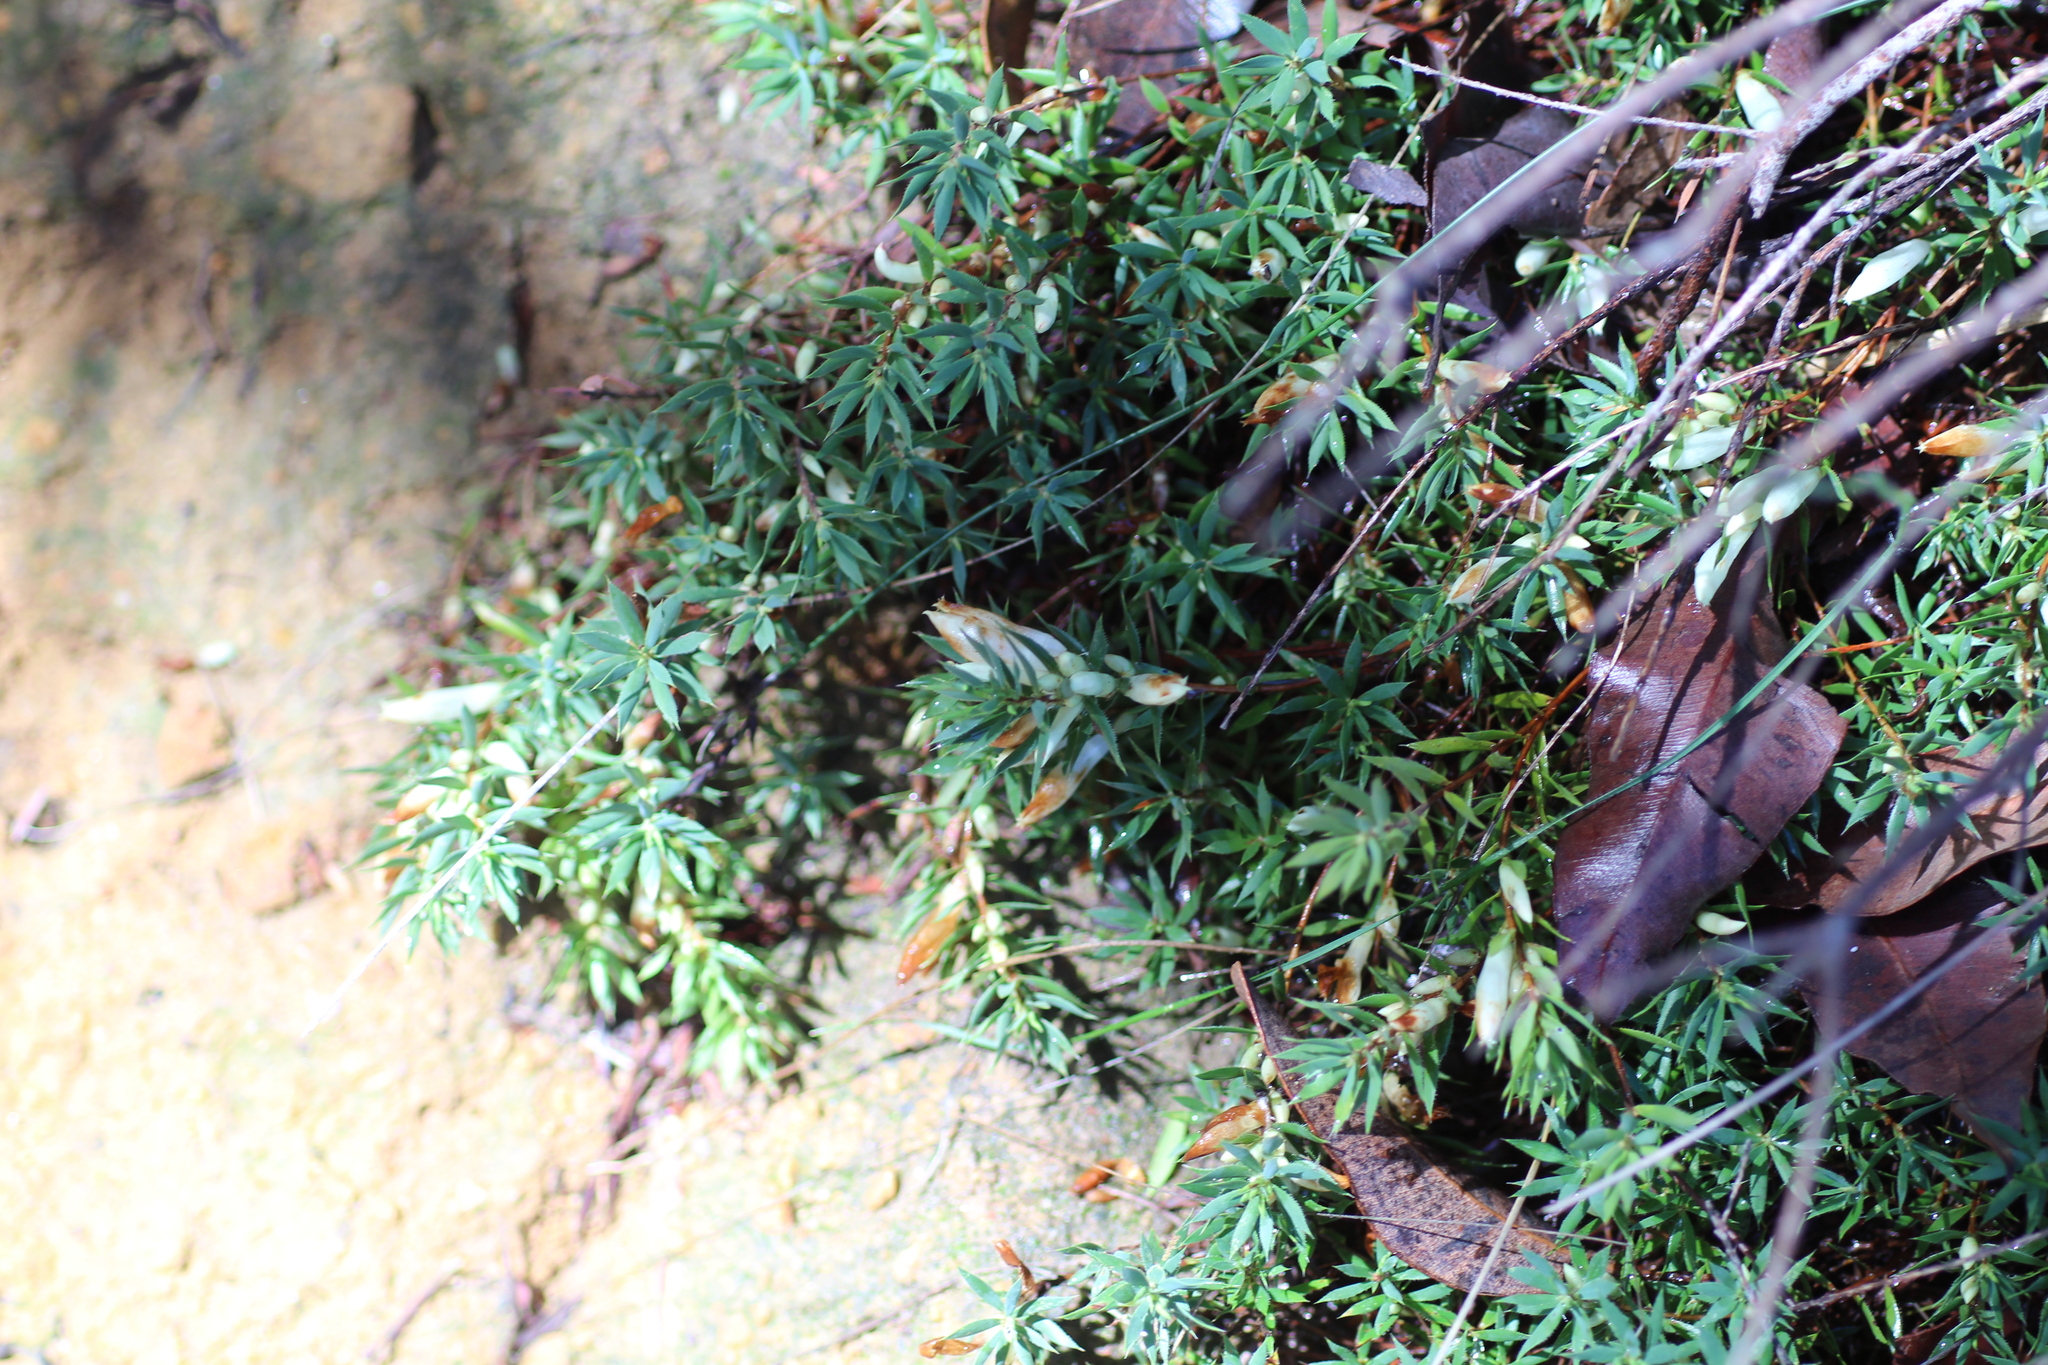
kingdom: Plantae
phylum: Tracheophyta
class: Magnoliopsida
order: Ericales
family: Ericaceae
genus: Styphelia
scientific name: Styphelia pallida
